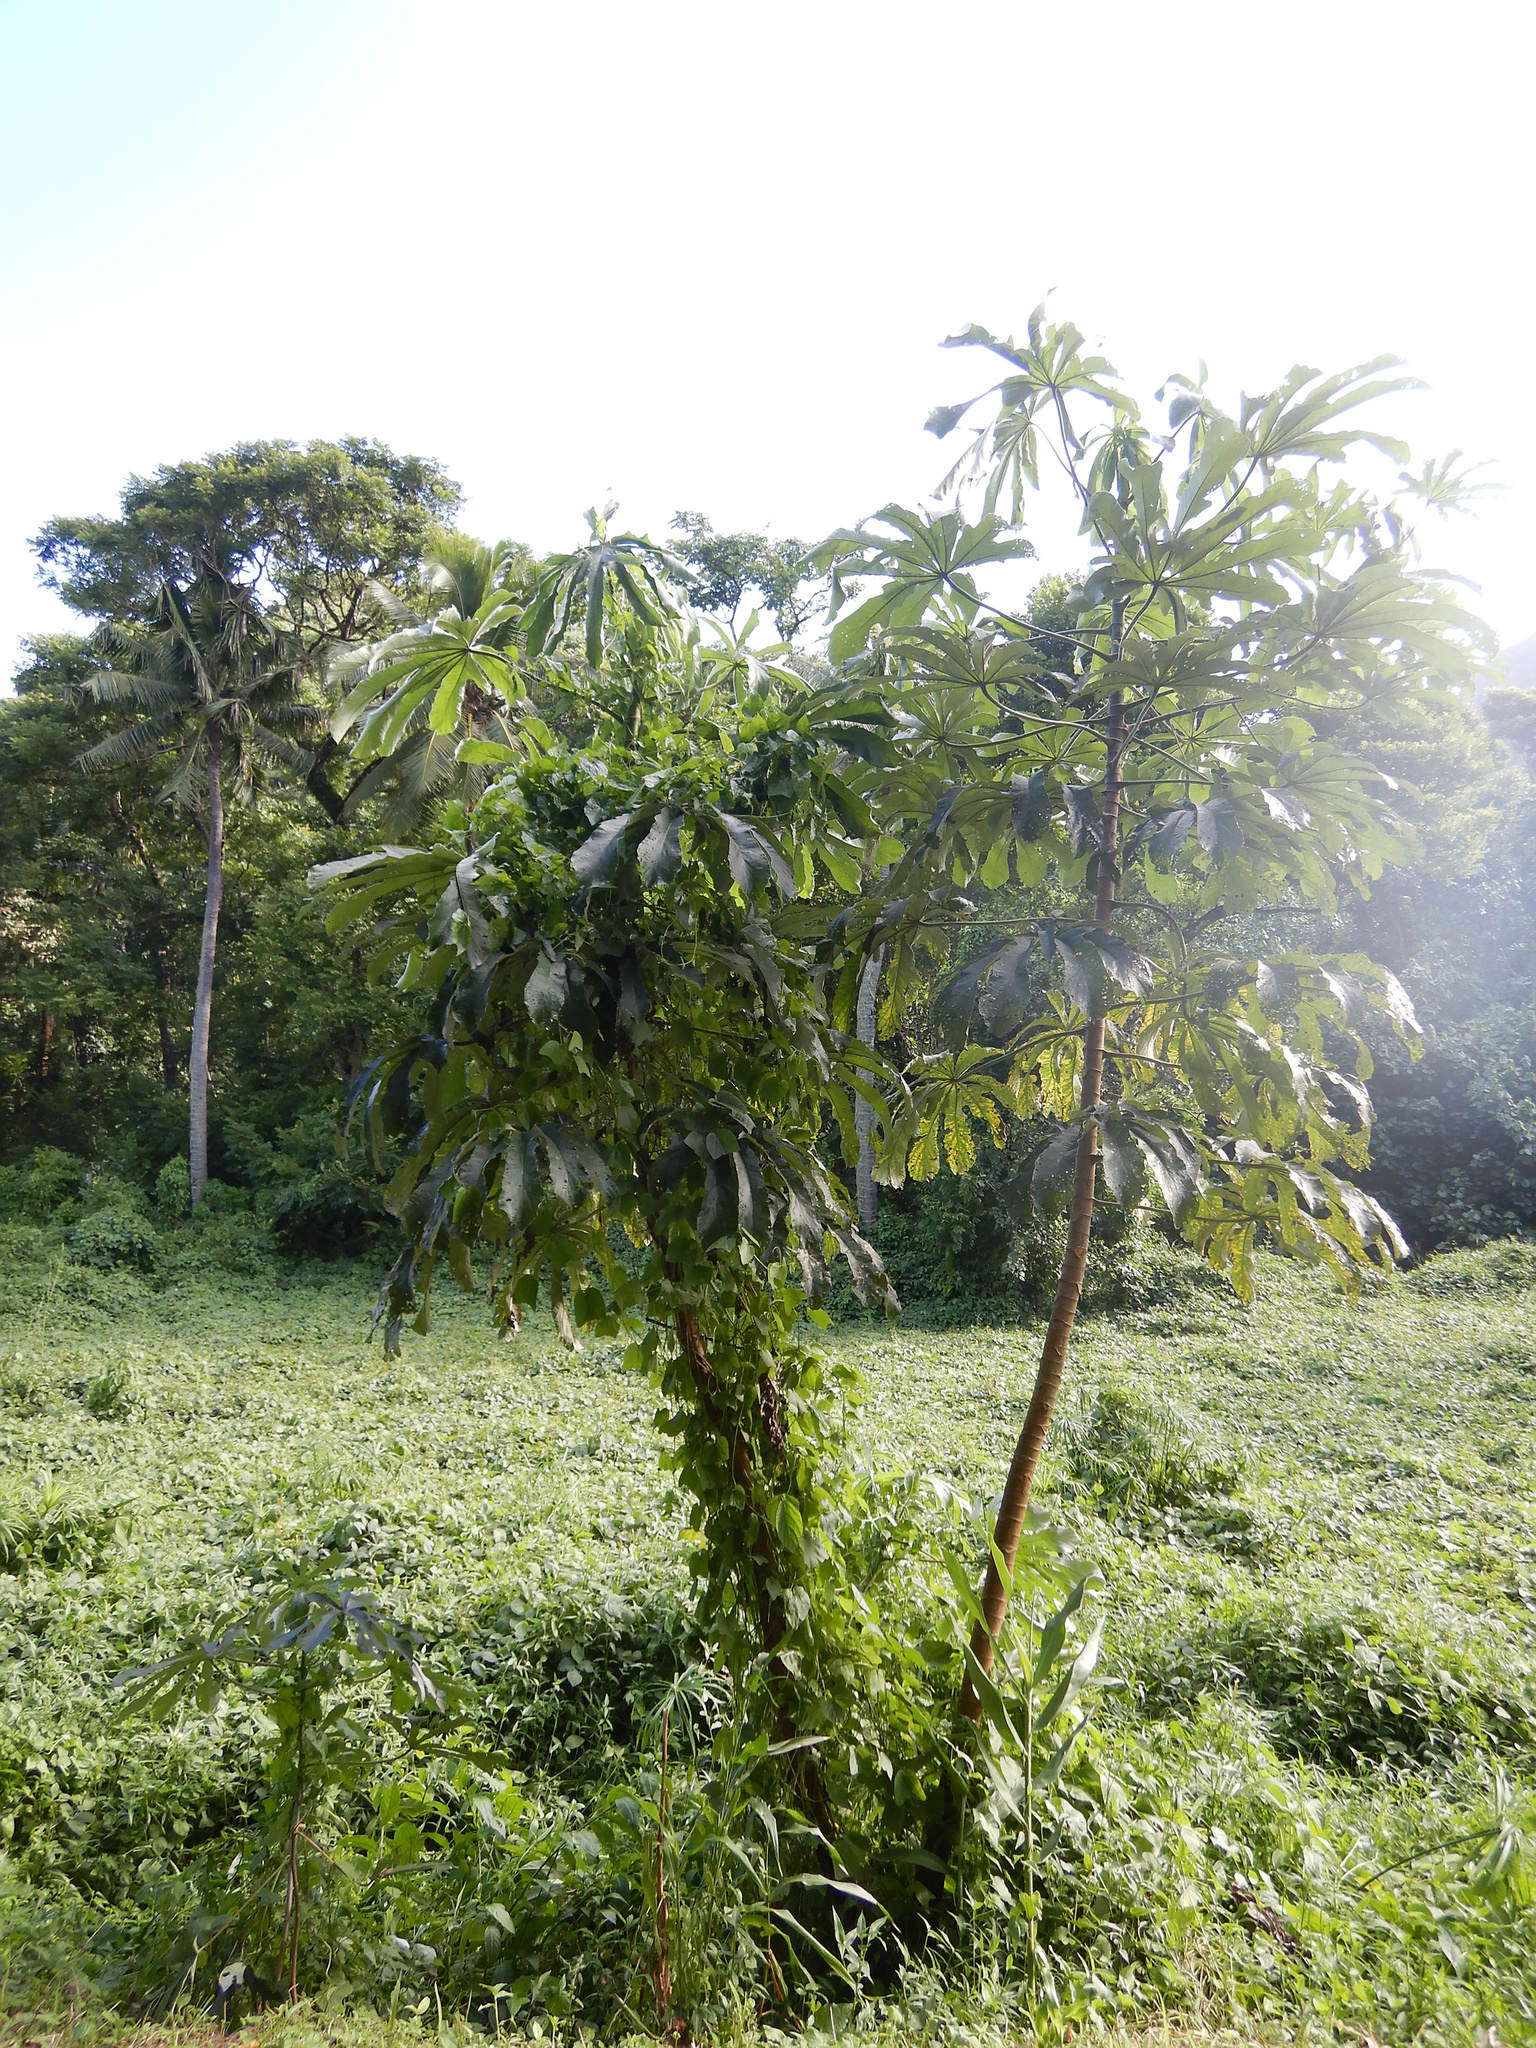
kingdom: Plantae
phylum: Tracheophyta
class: Magnoliopsida
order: Rosales
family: Urticaceae
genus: Cecropia
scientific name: Cecropia pachystachya
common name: Ambay pumpwood
